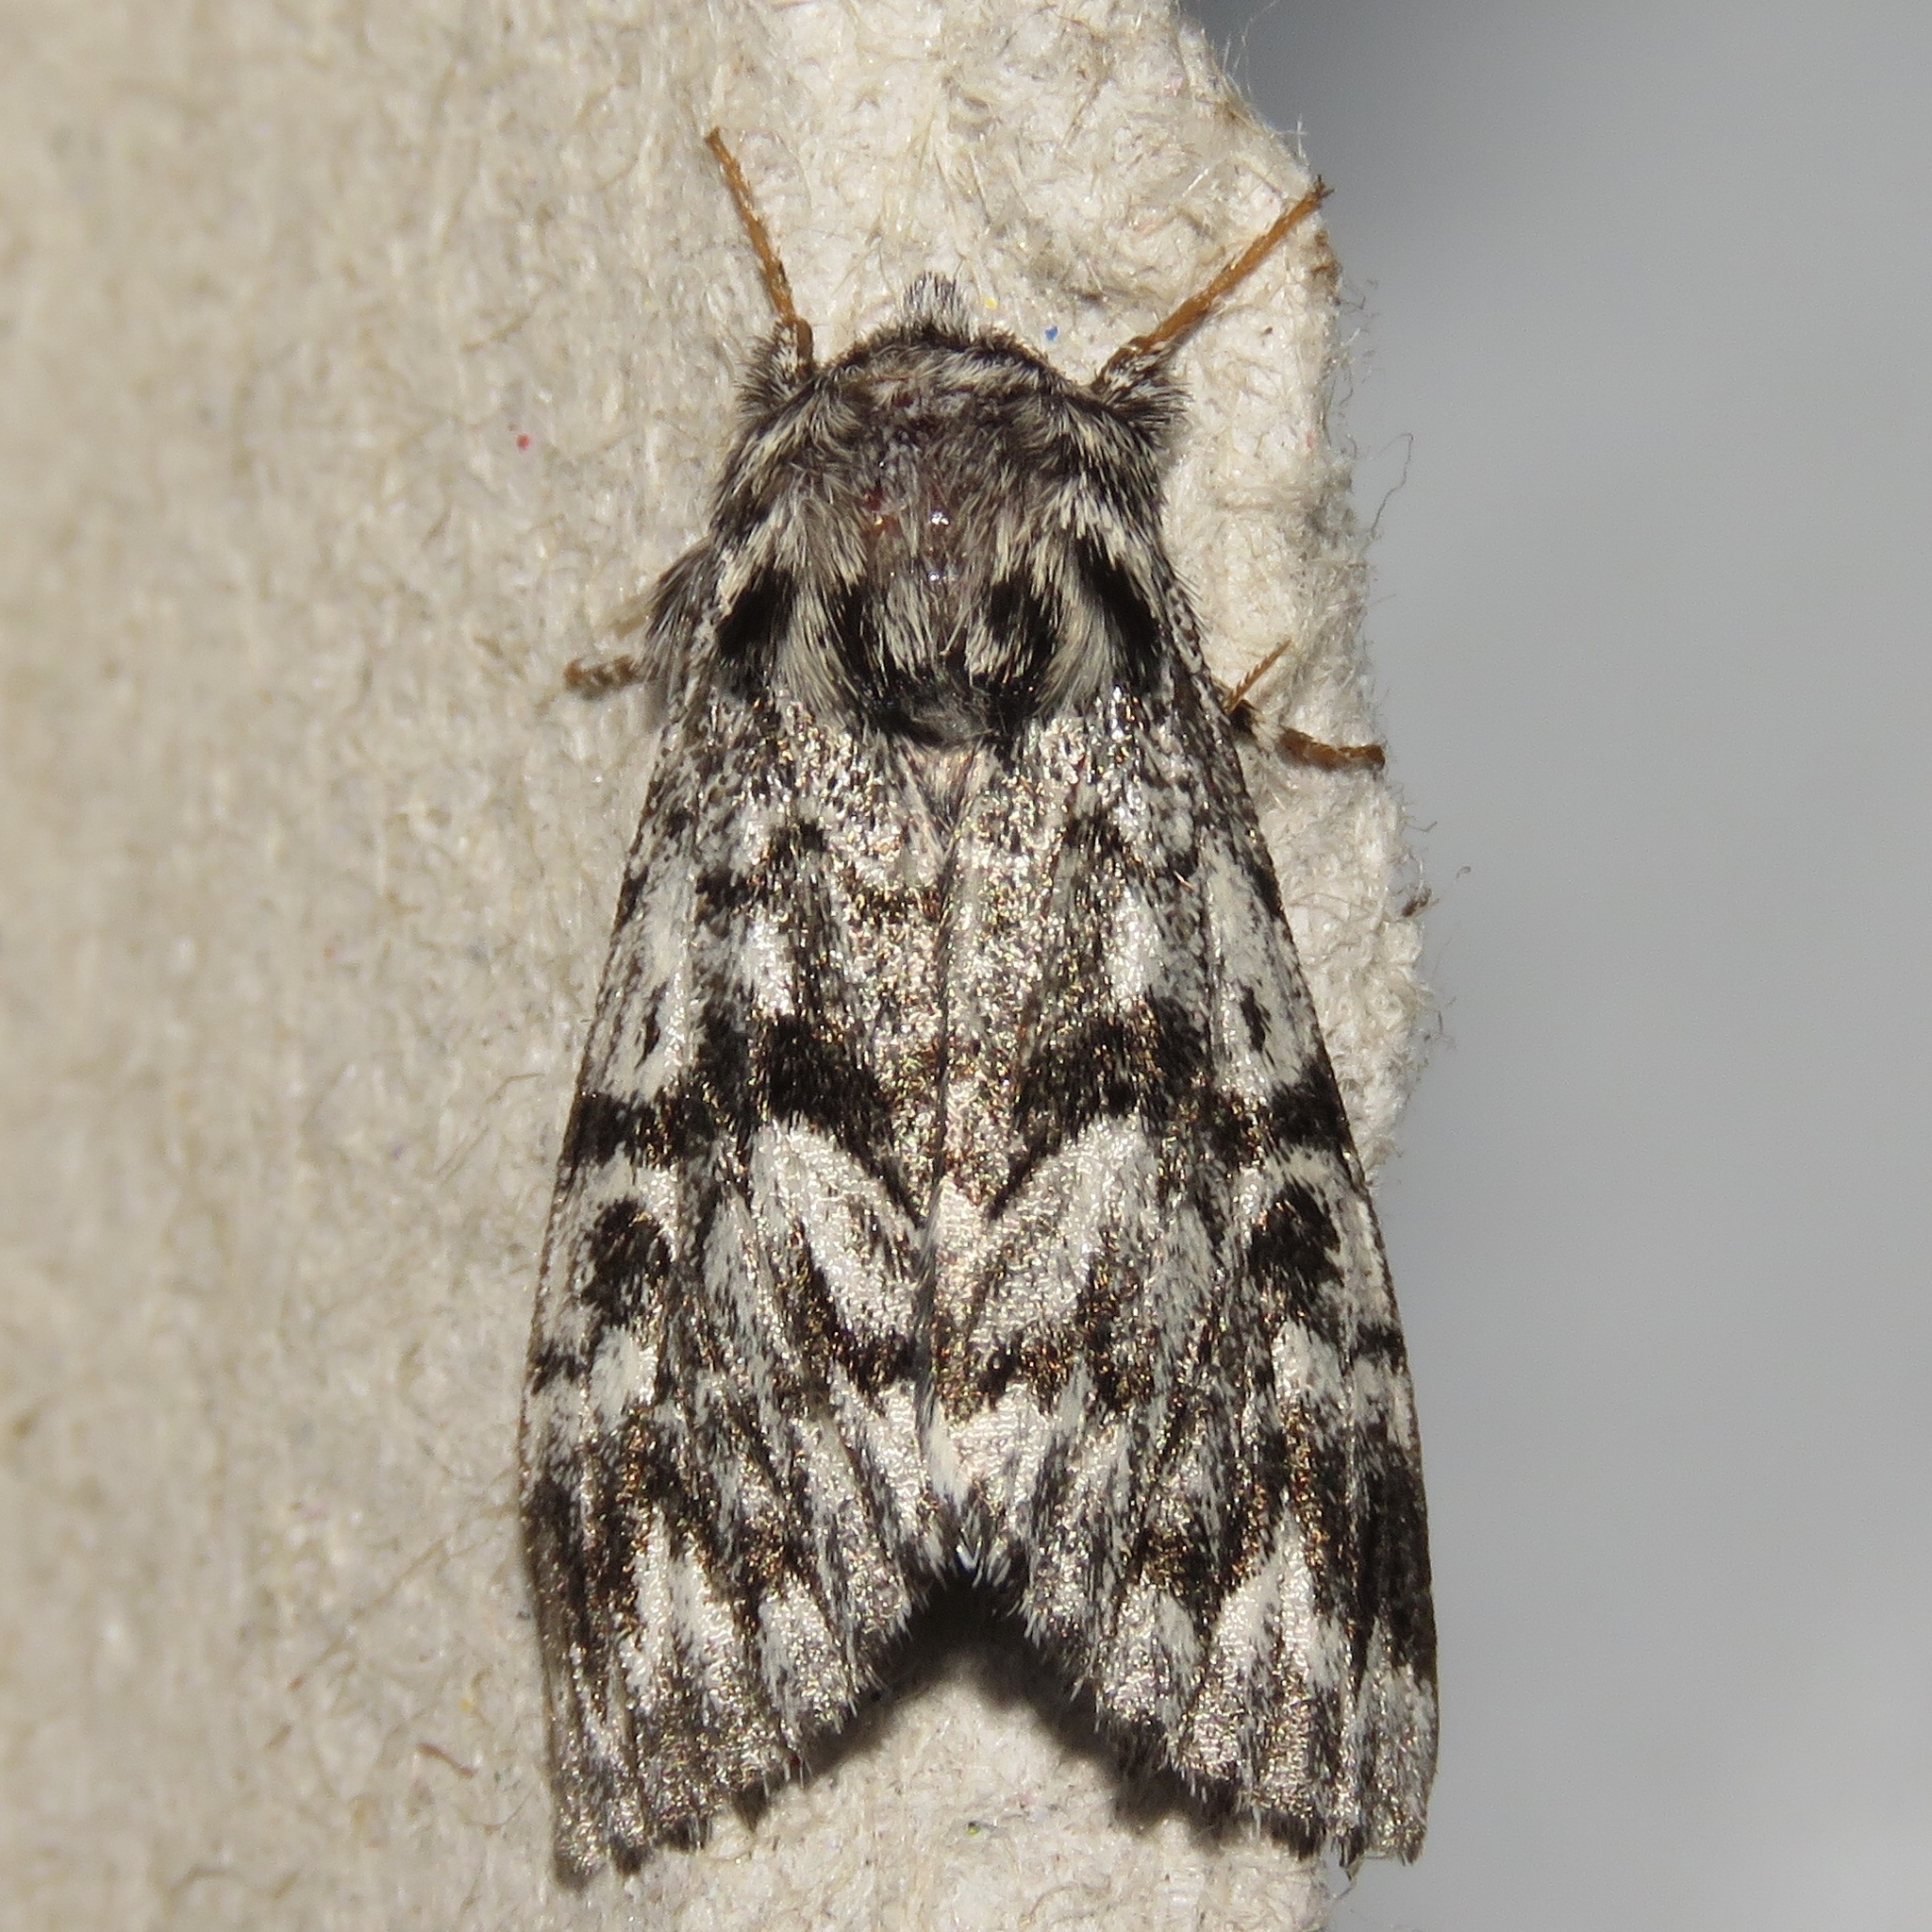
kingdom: Animalia
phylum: Arthropoda
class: Insecta
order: Lepidoptera
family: Noctuidae
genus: Panthea
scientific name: Panthea acronyctoides
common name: Black zigzag moth
